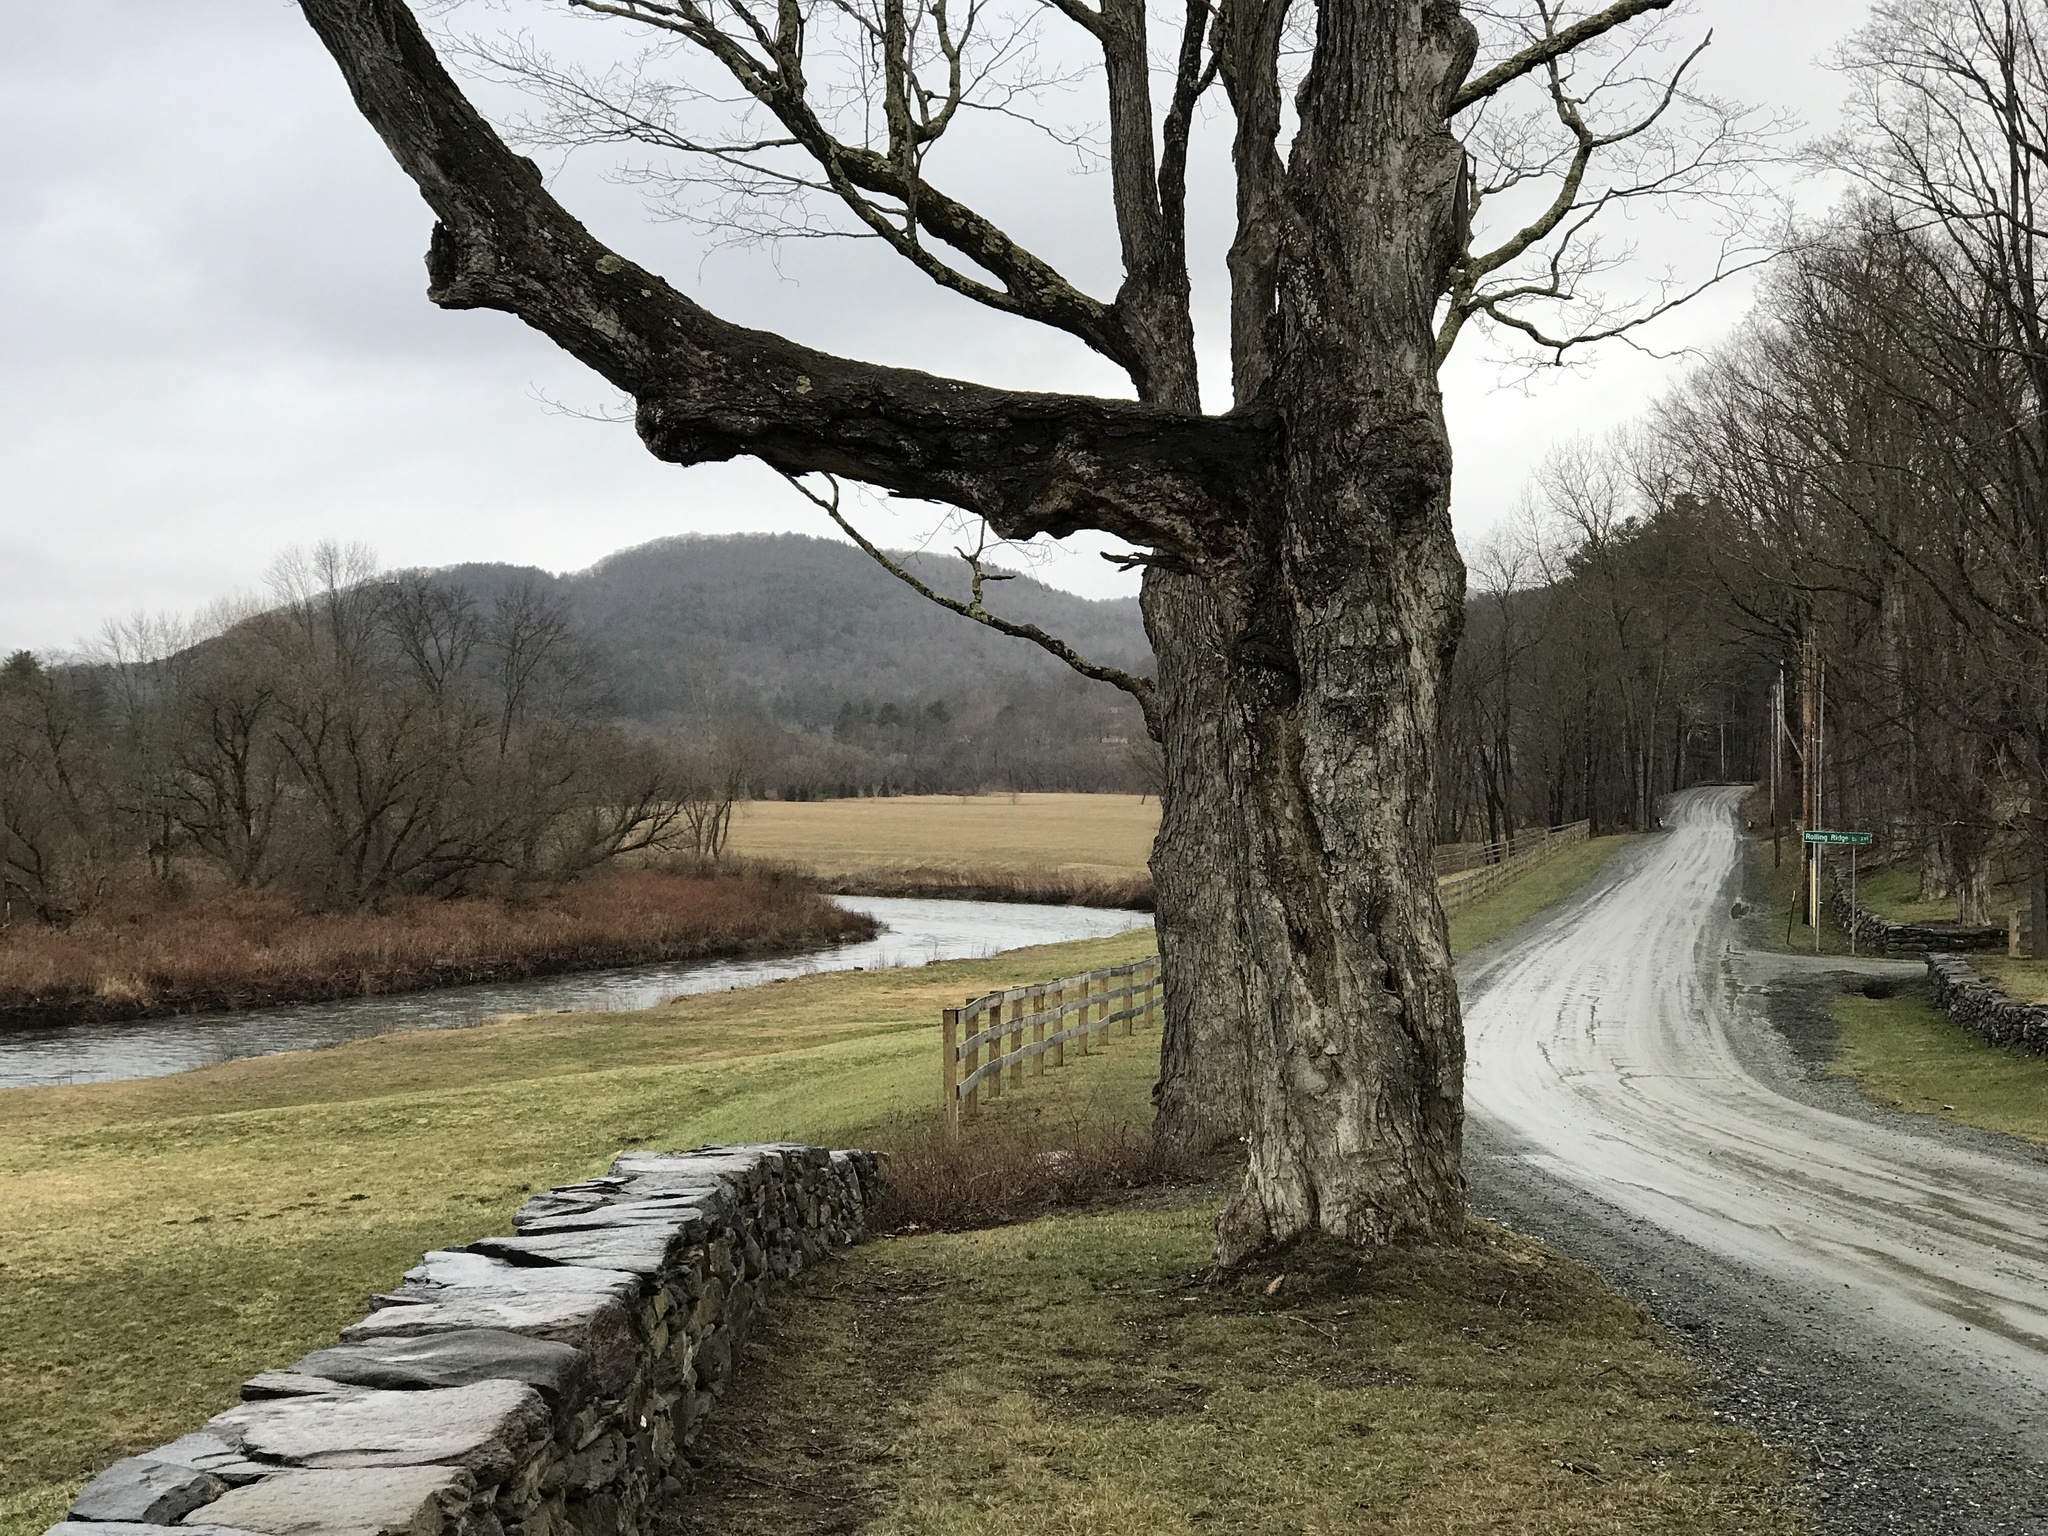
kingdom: Plantae
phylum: Tracheophyta
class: Magnoliopsida
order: Sapindales
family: Sapindaceae
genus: Acer
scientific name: Acer saccharum
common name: Sugar maple
